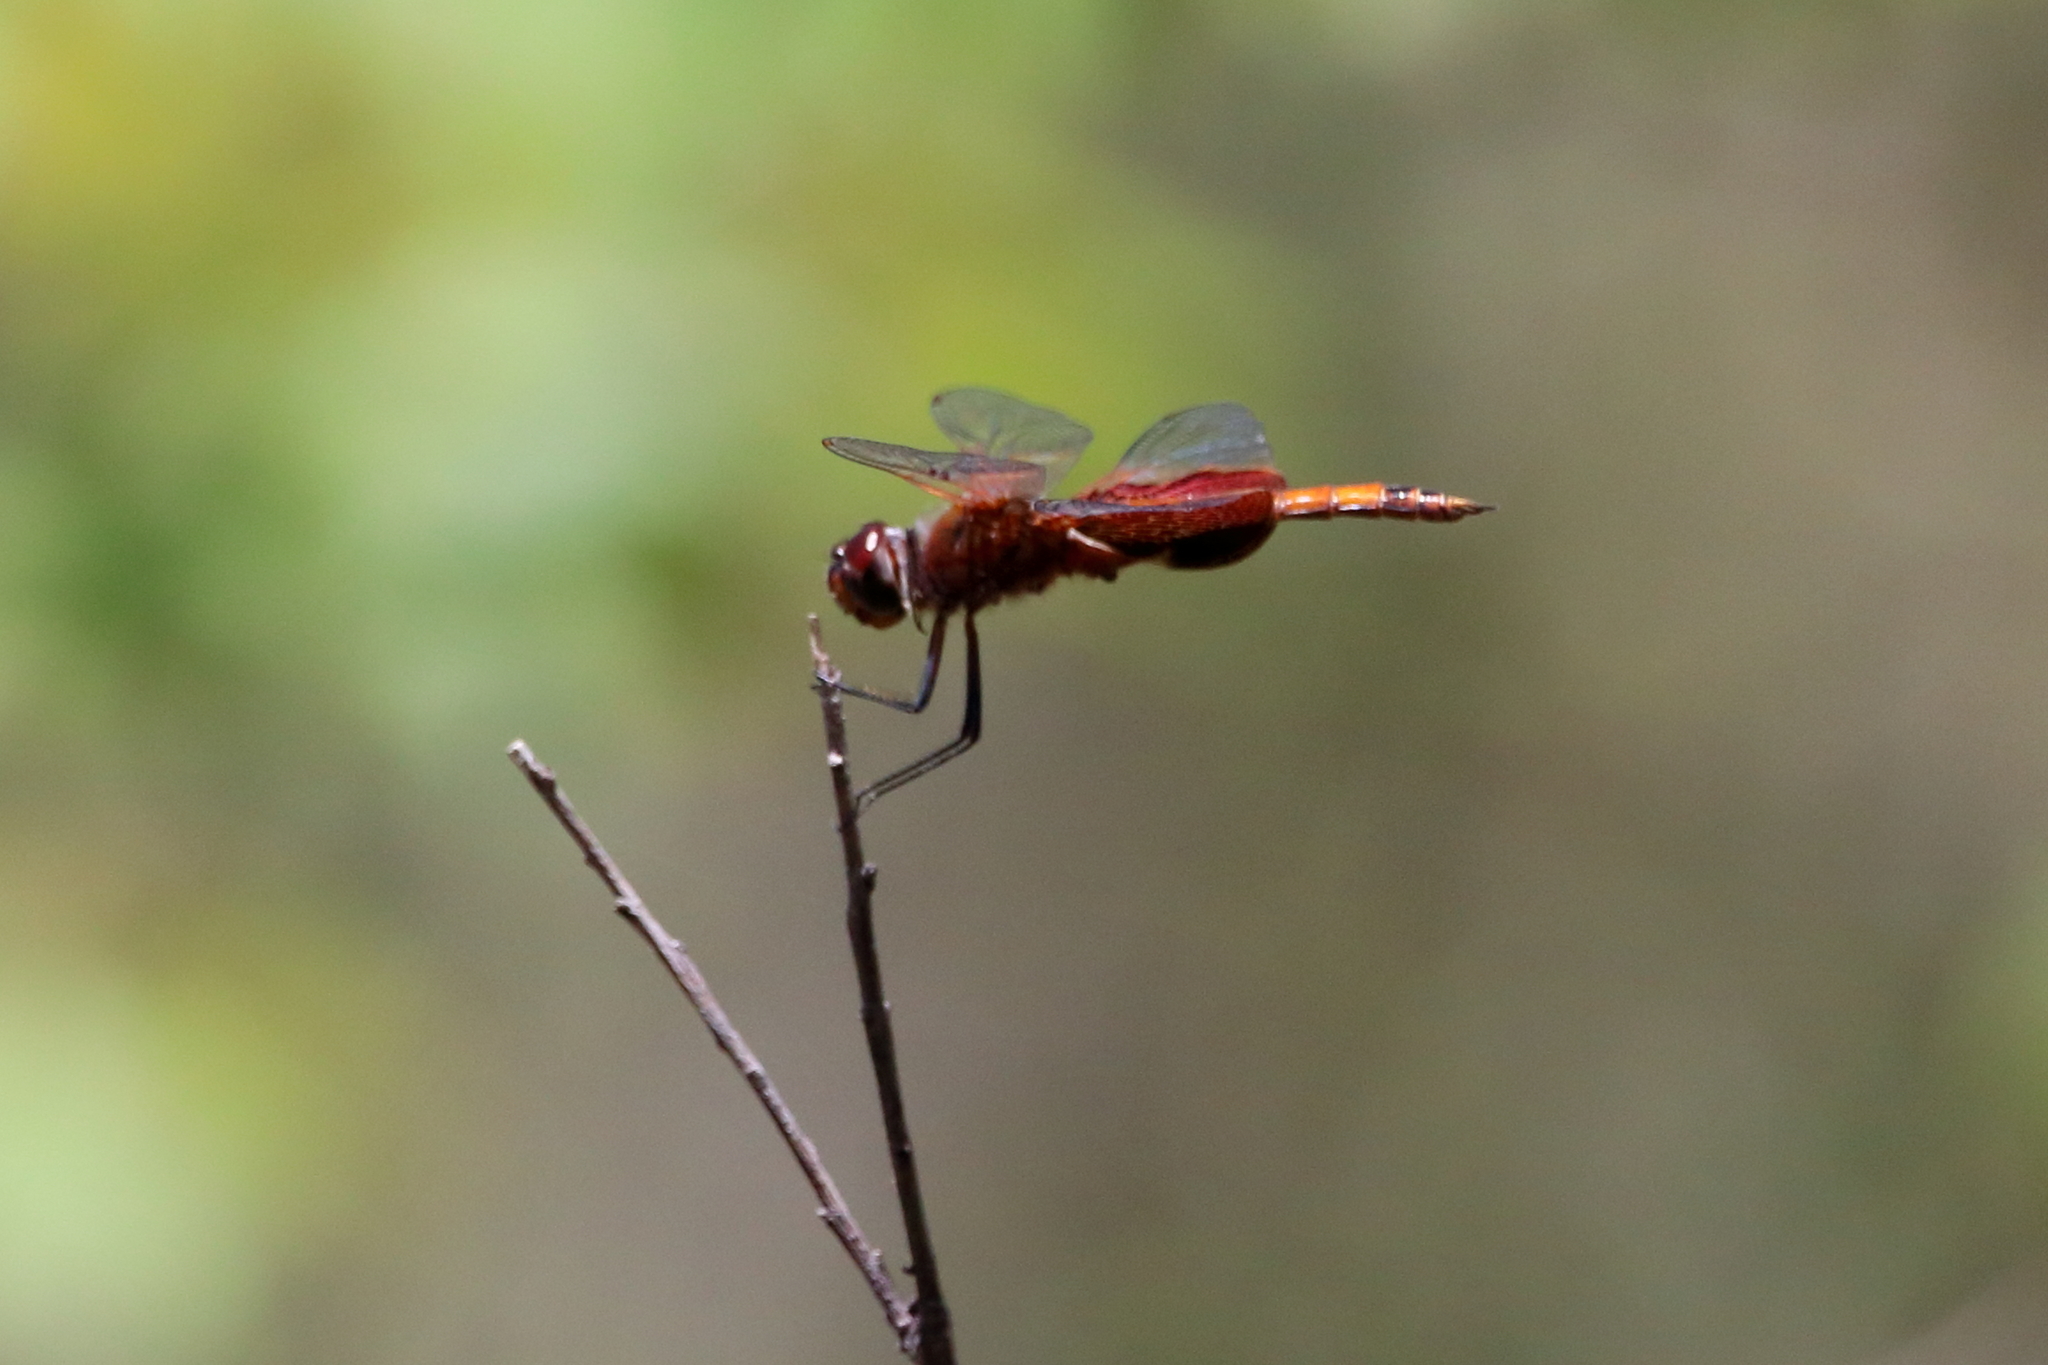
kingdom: Animalia
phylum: Arthropoda
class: Insecta
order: Odonata
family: Libellulidae
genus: Tramea
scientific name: Tramea carolina
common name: Carolina saddlebags
